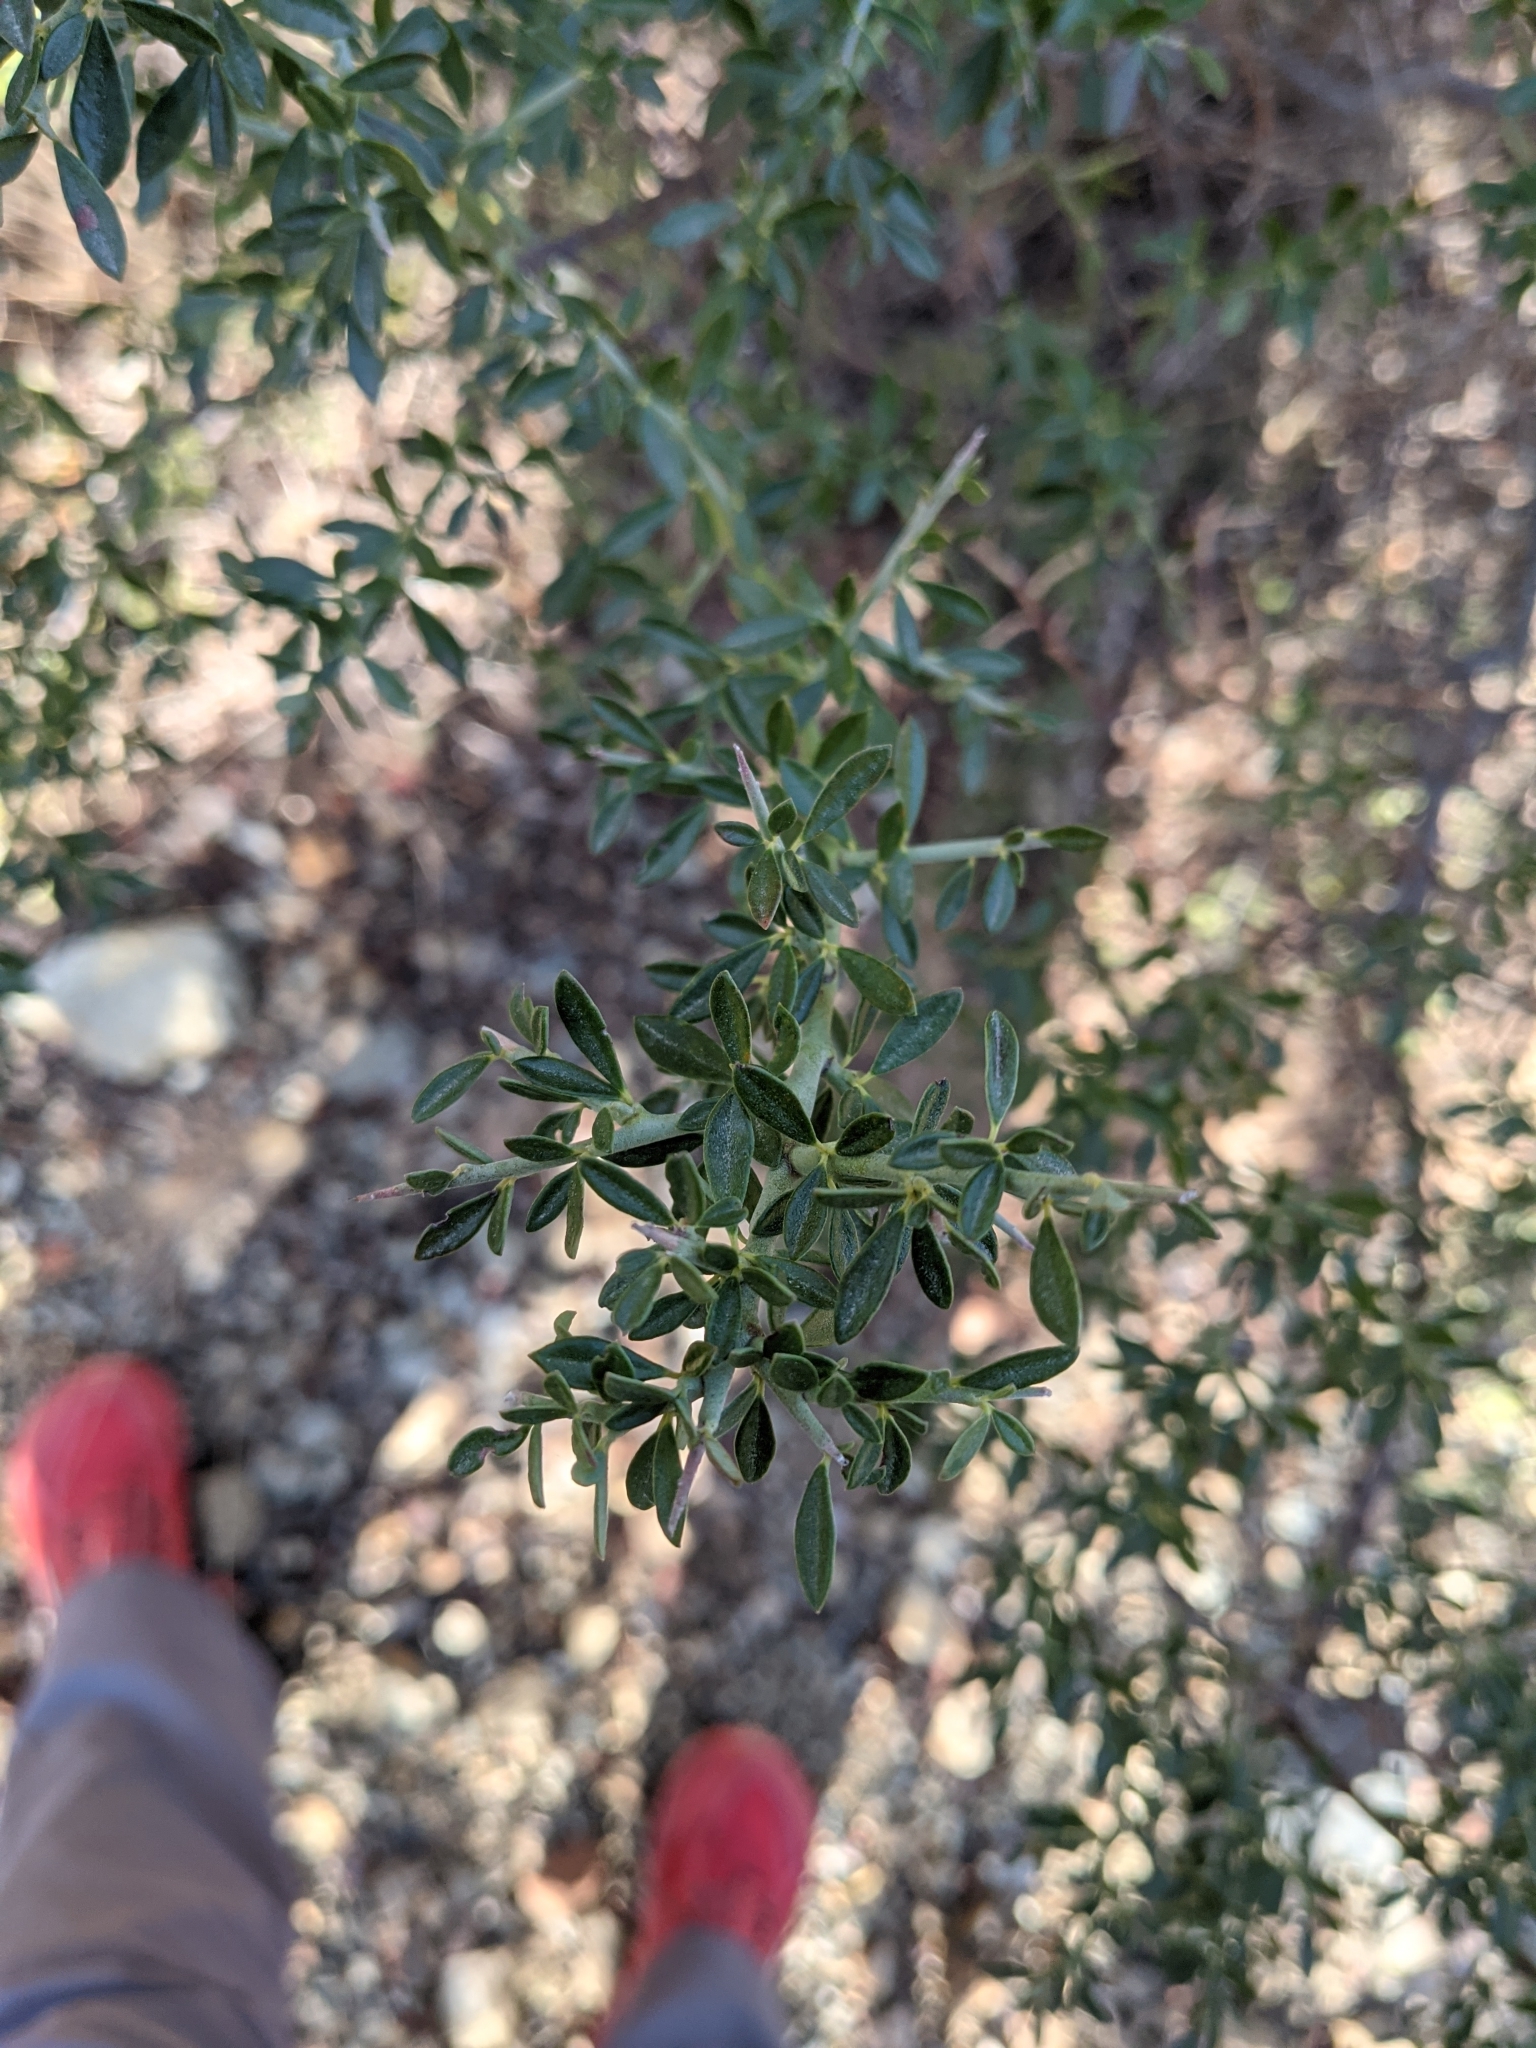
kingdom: Plantae
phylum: Tracheophyta
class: Magnoliopsida
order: Fabales
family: Fabaceae
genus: Pickeringia
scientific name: Pickeringia montana
